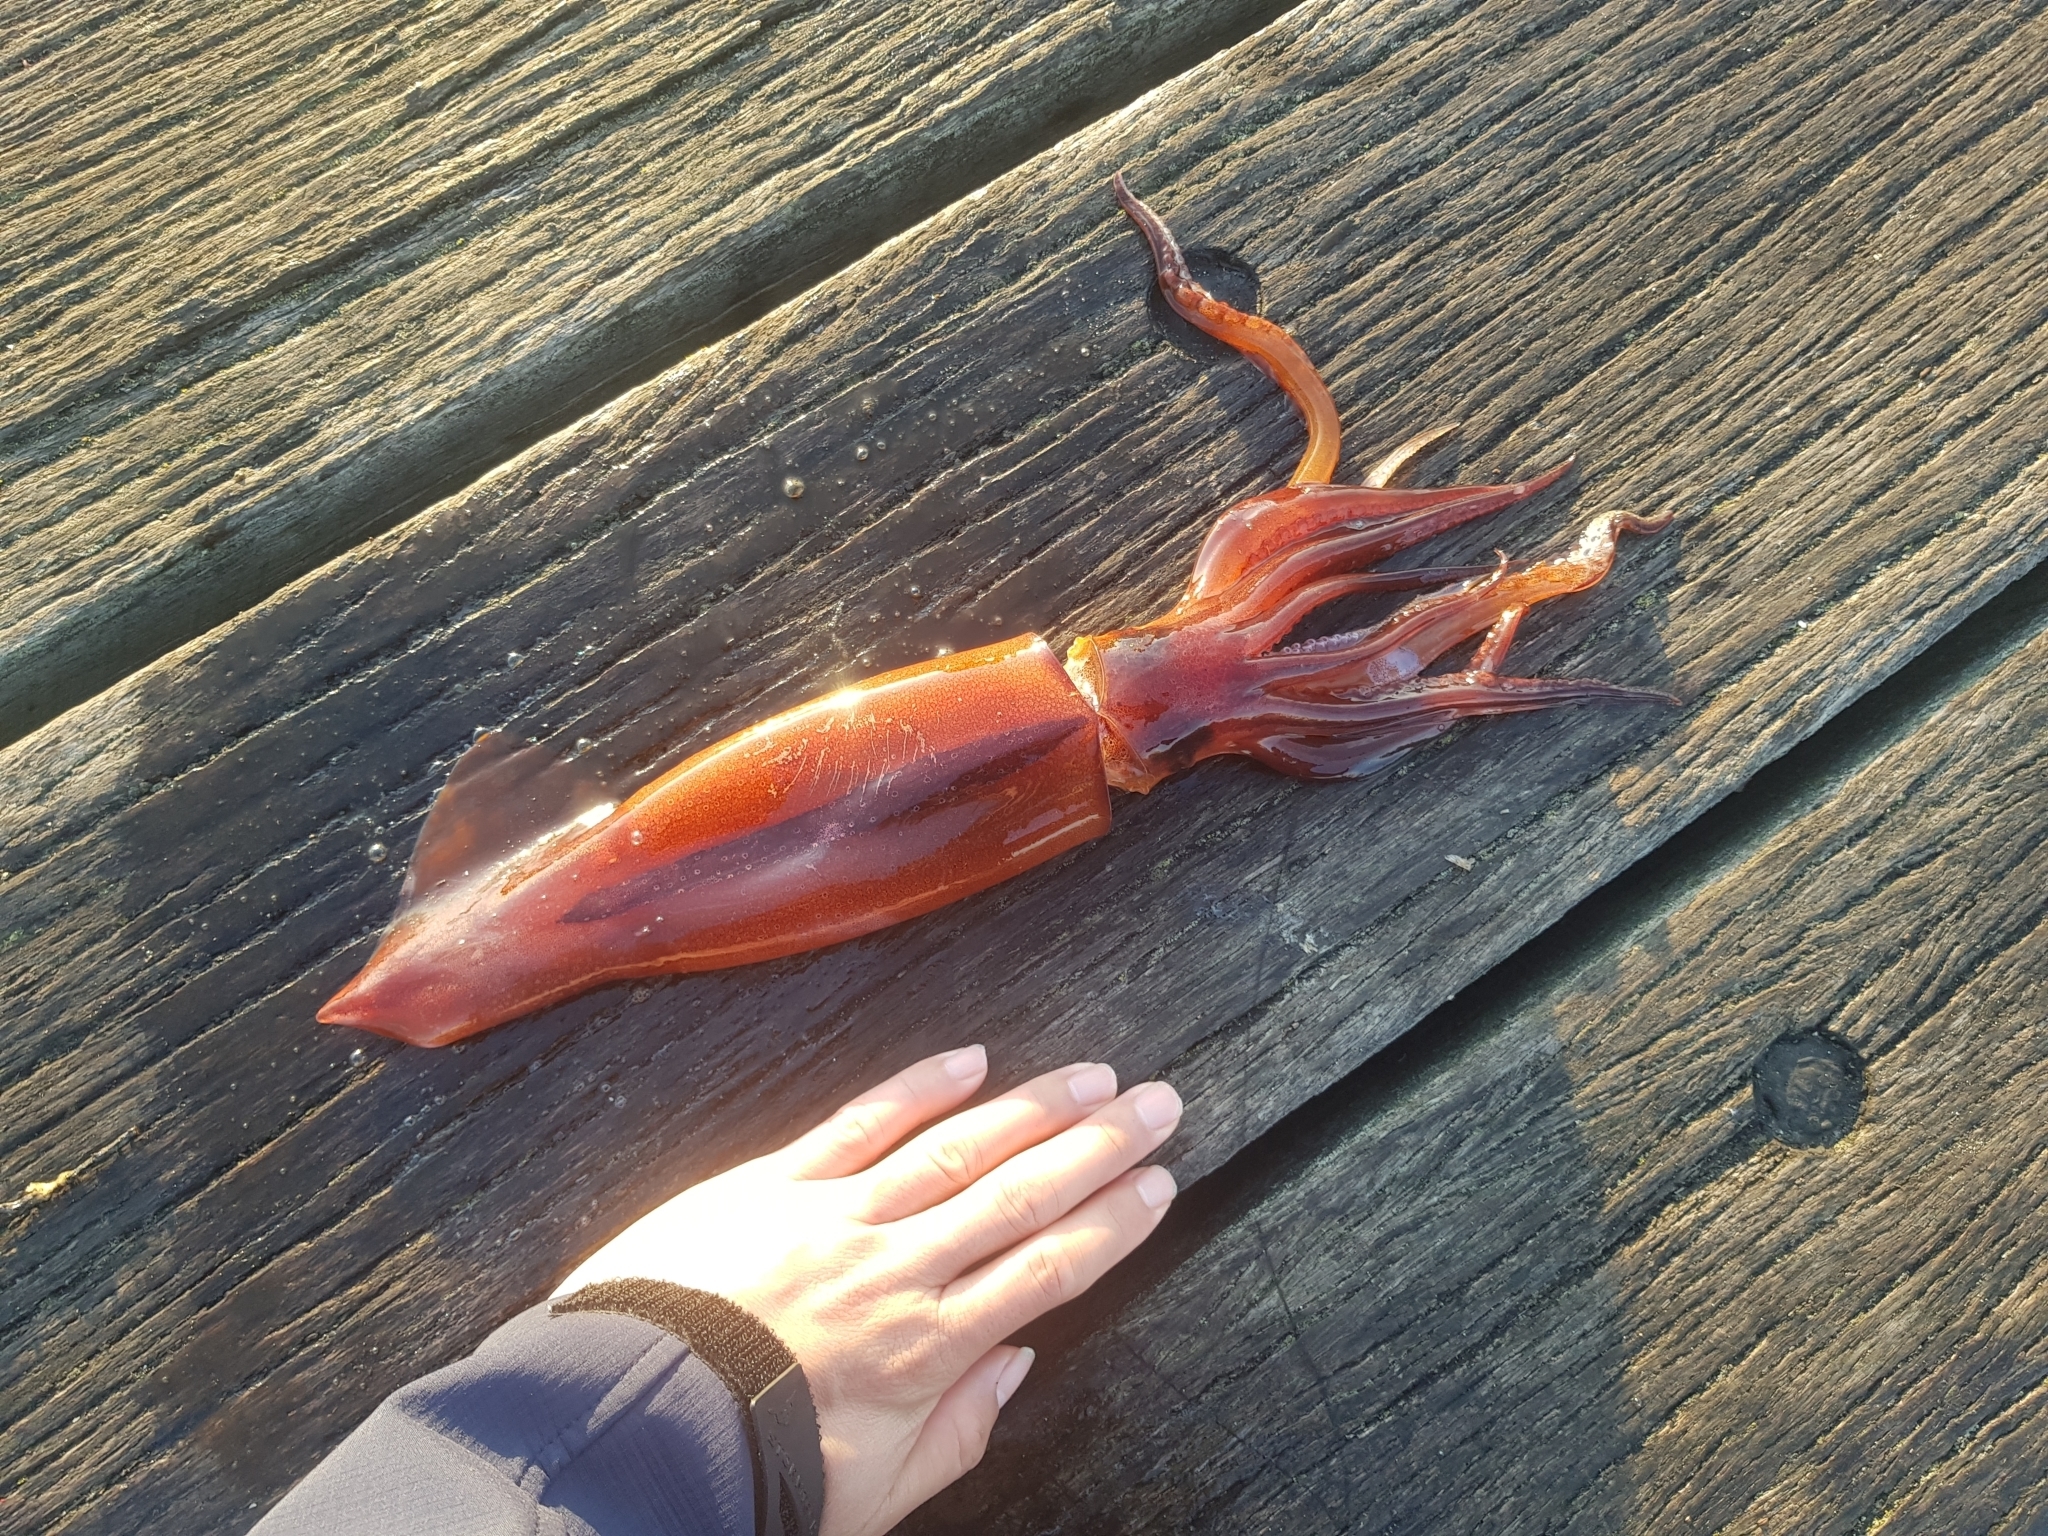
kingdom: Animalia
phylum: Mollusca
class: Cephalopoda
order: Oegopsida
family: Ommastrephidae
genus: Nototodarus
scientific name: Nototodarus gouldi
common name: Gould's flying squid
